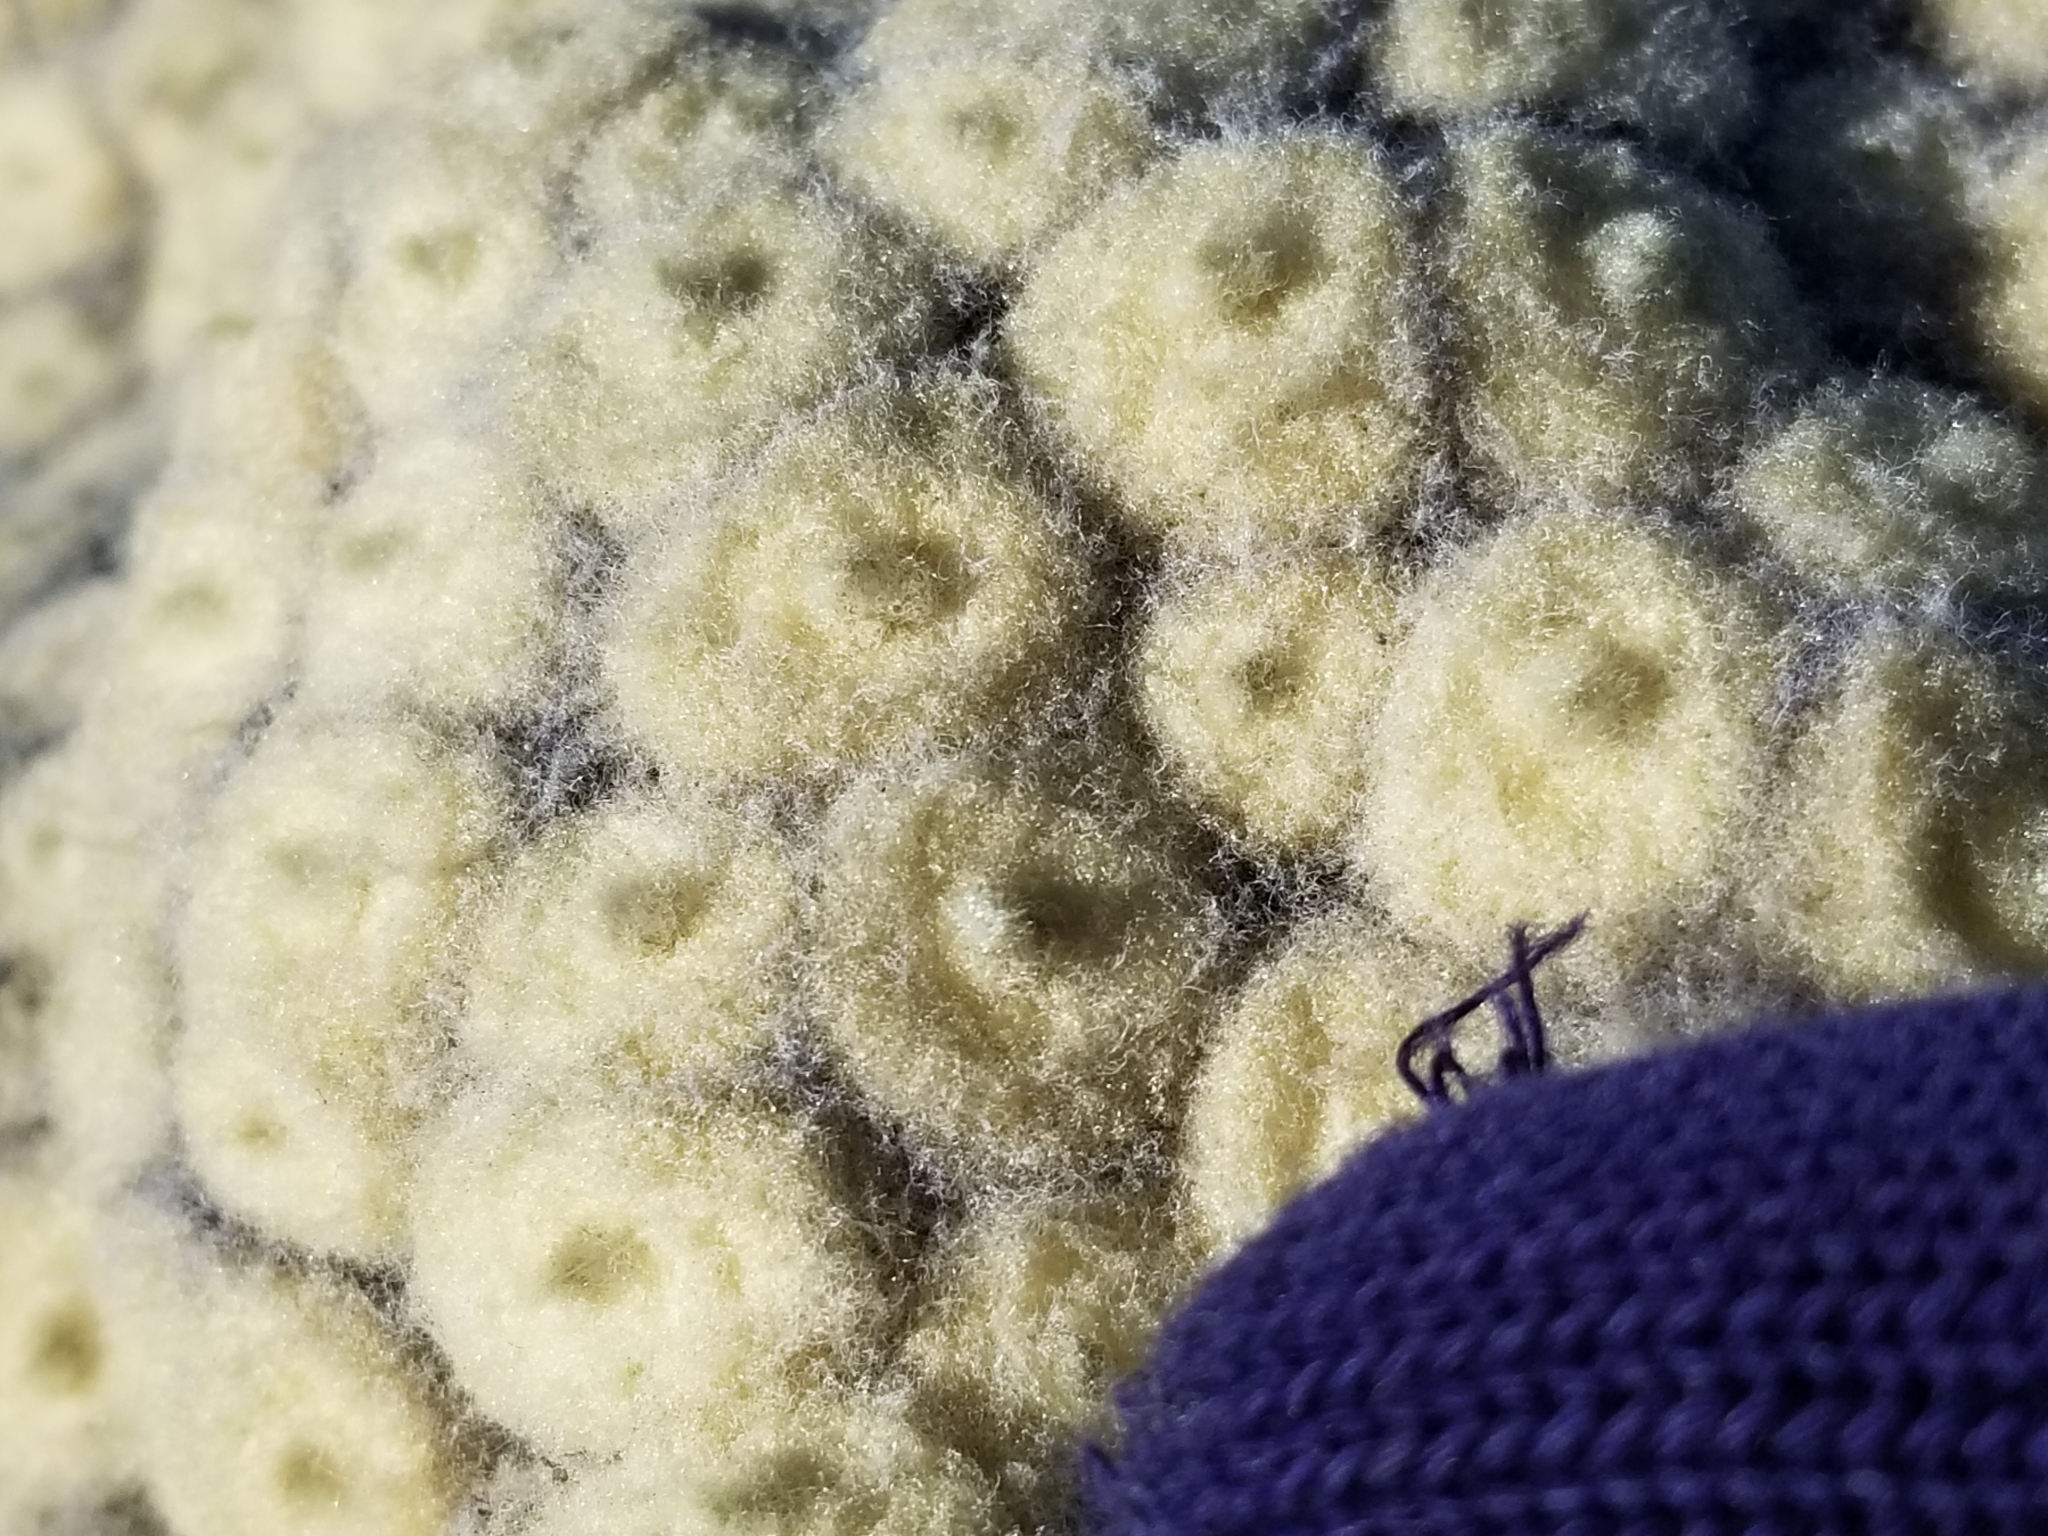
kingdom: Plantae
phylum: Tracheophyta
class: Magnoliopsida
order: Asterales
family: Asteraceae
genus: Haastia
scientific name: Haastia pulvinaris
